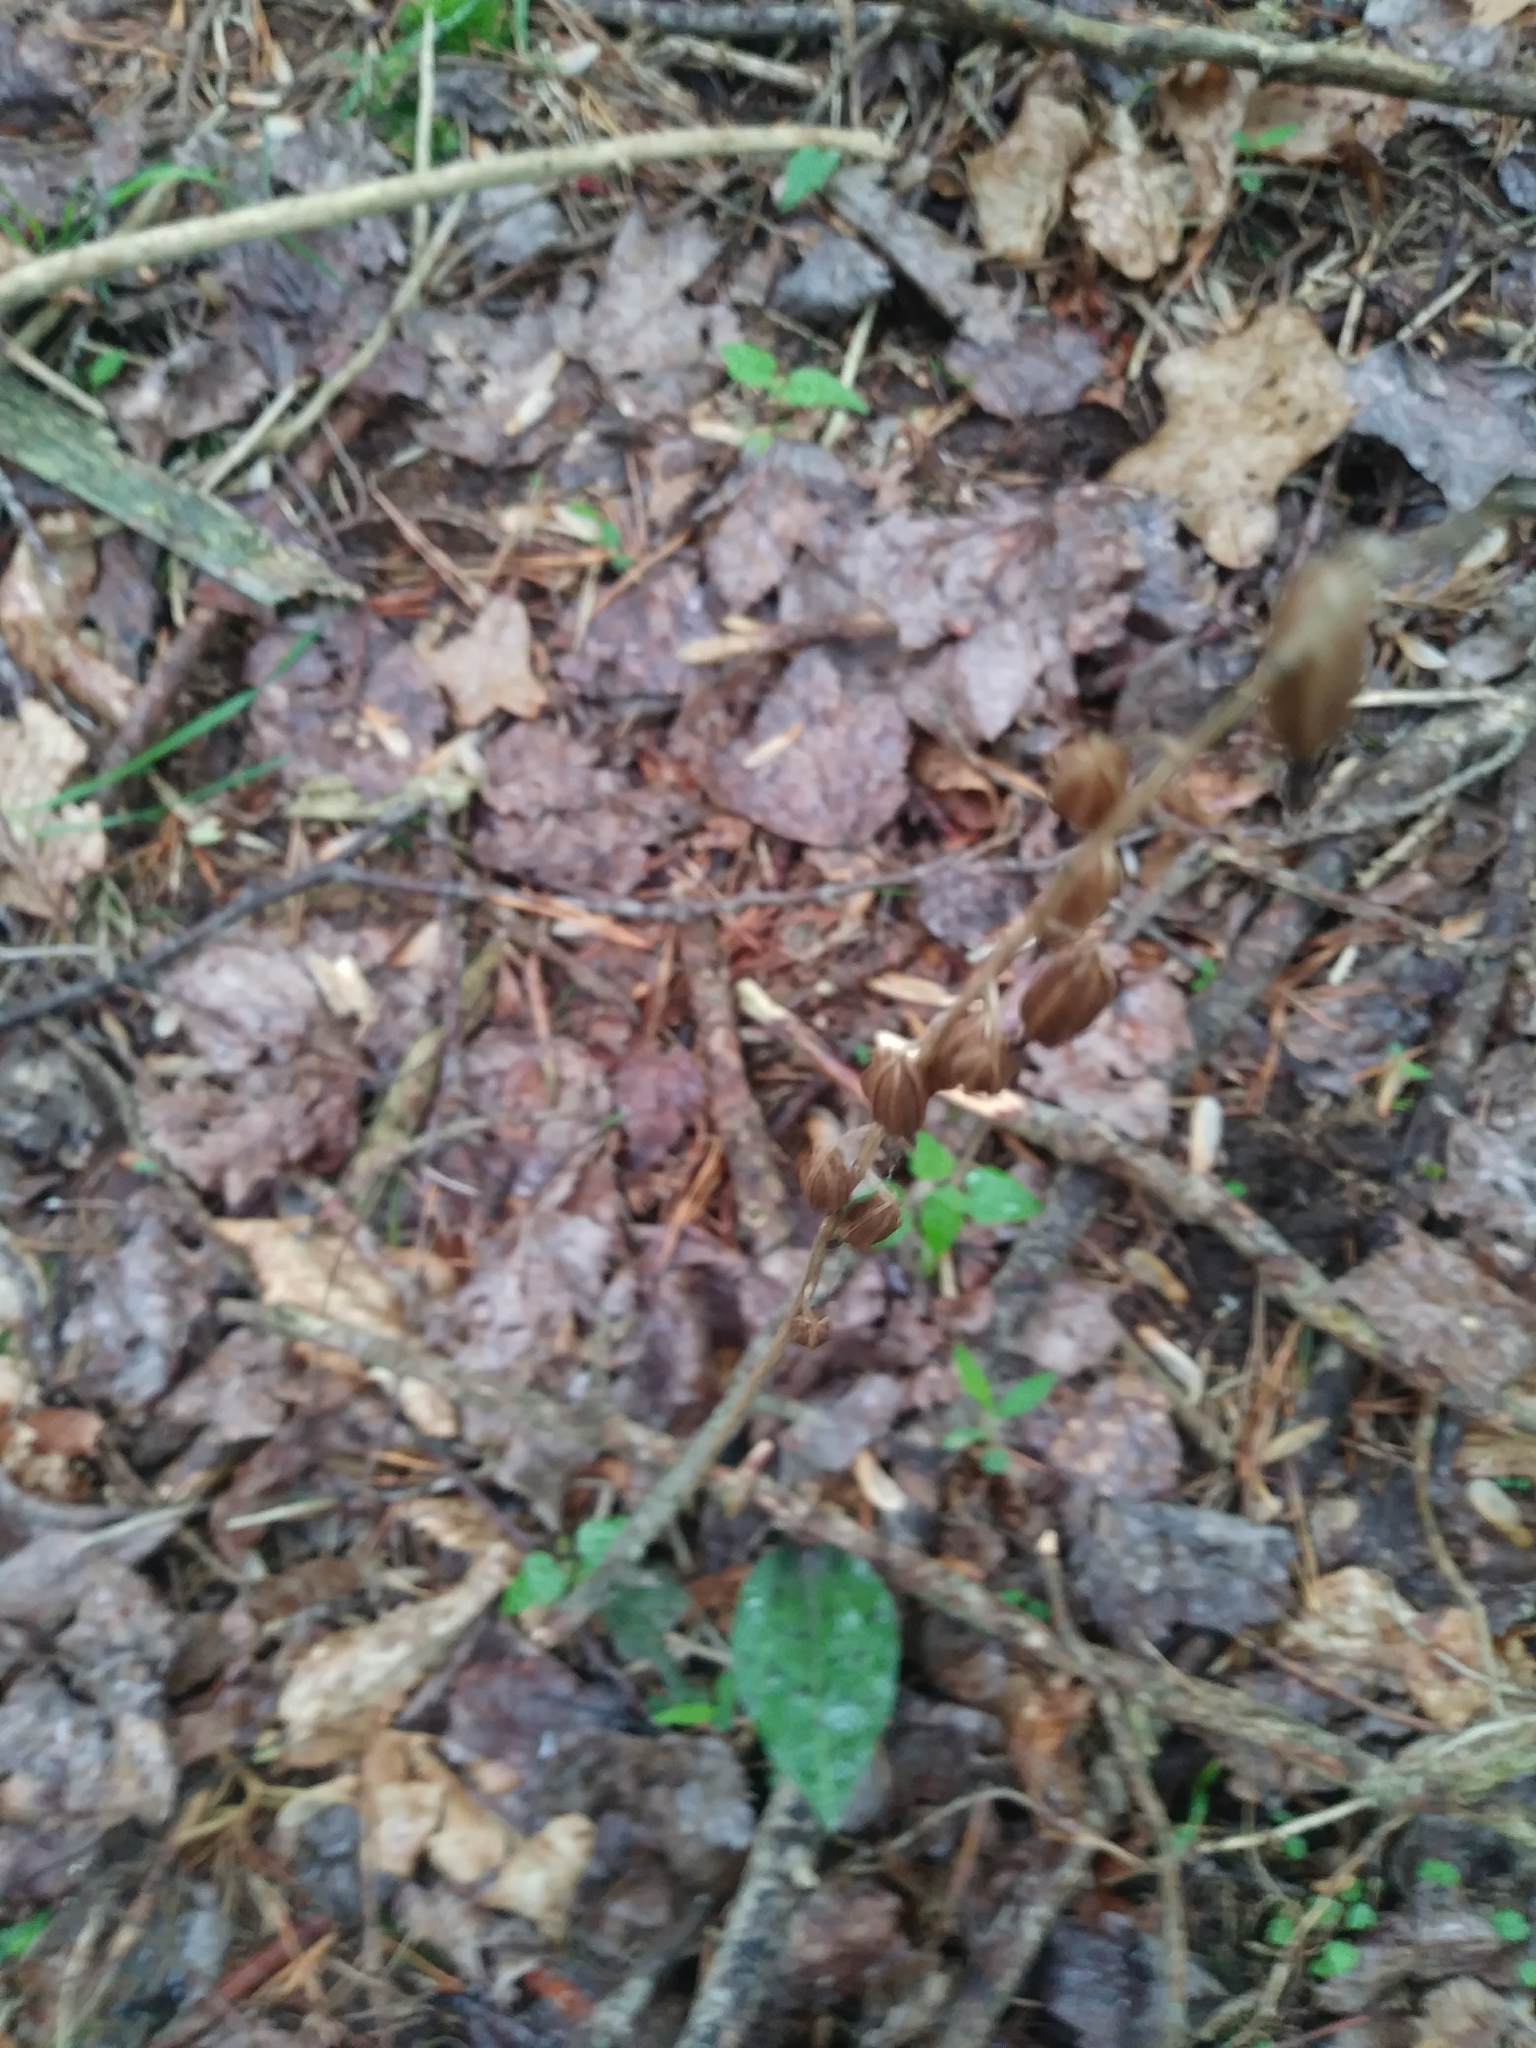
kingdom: Plantae
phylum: Tracheophyta
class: Liliopsida
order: Asparagales
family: Orchidaceae
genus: Tipularia
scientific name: Tipularia discolor
